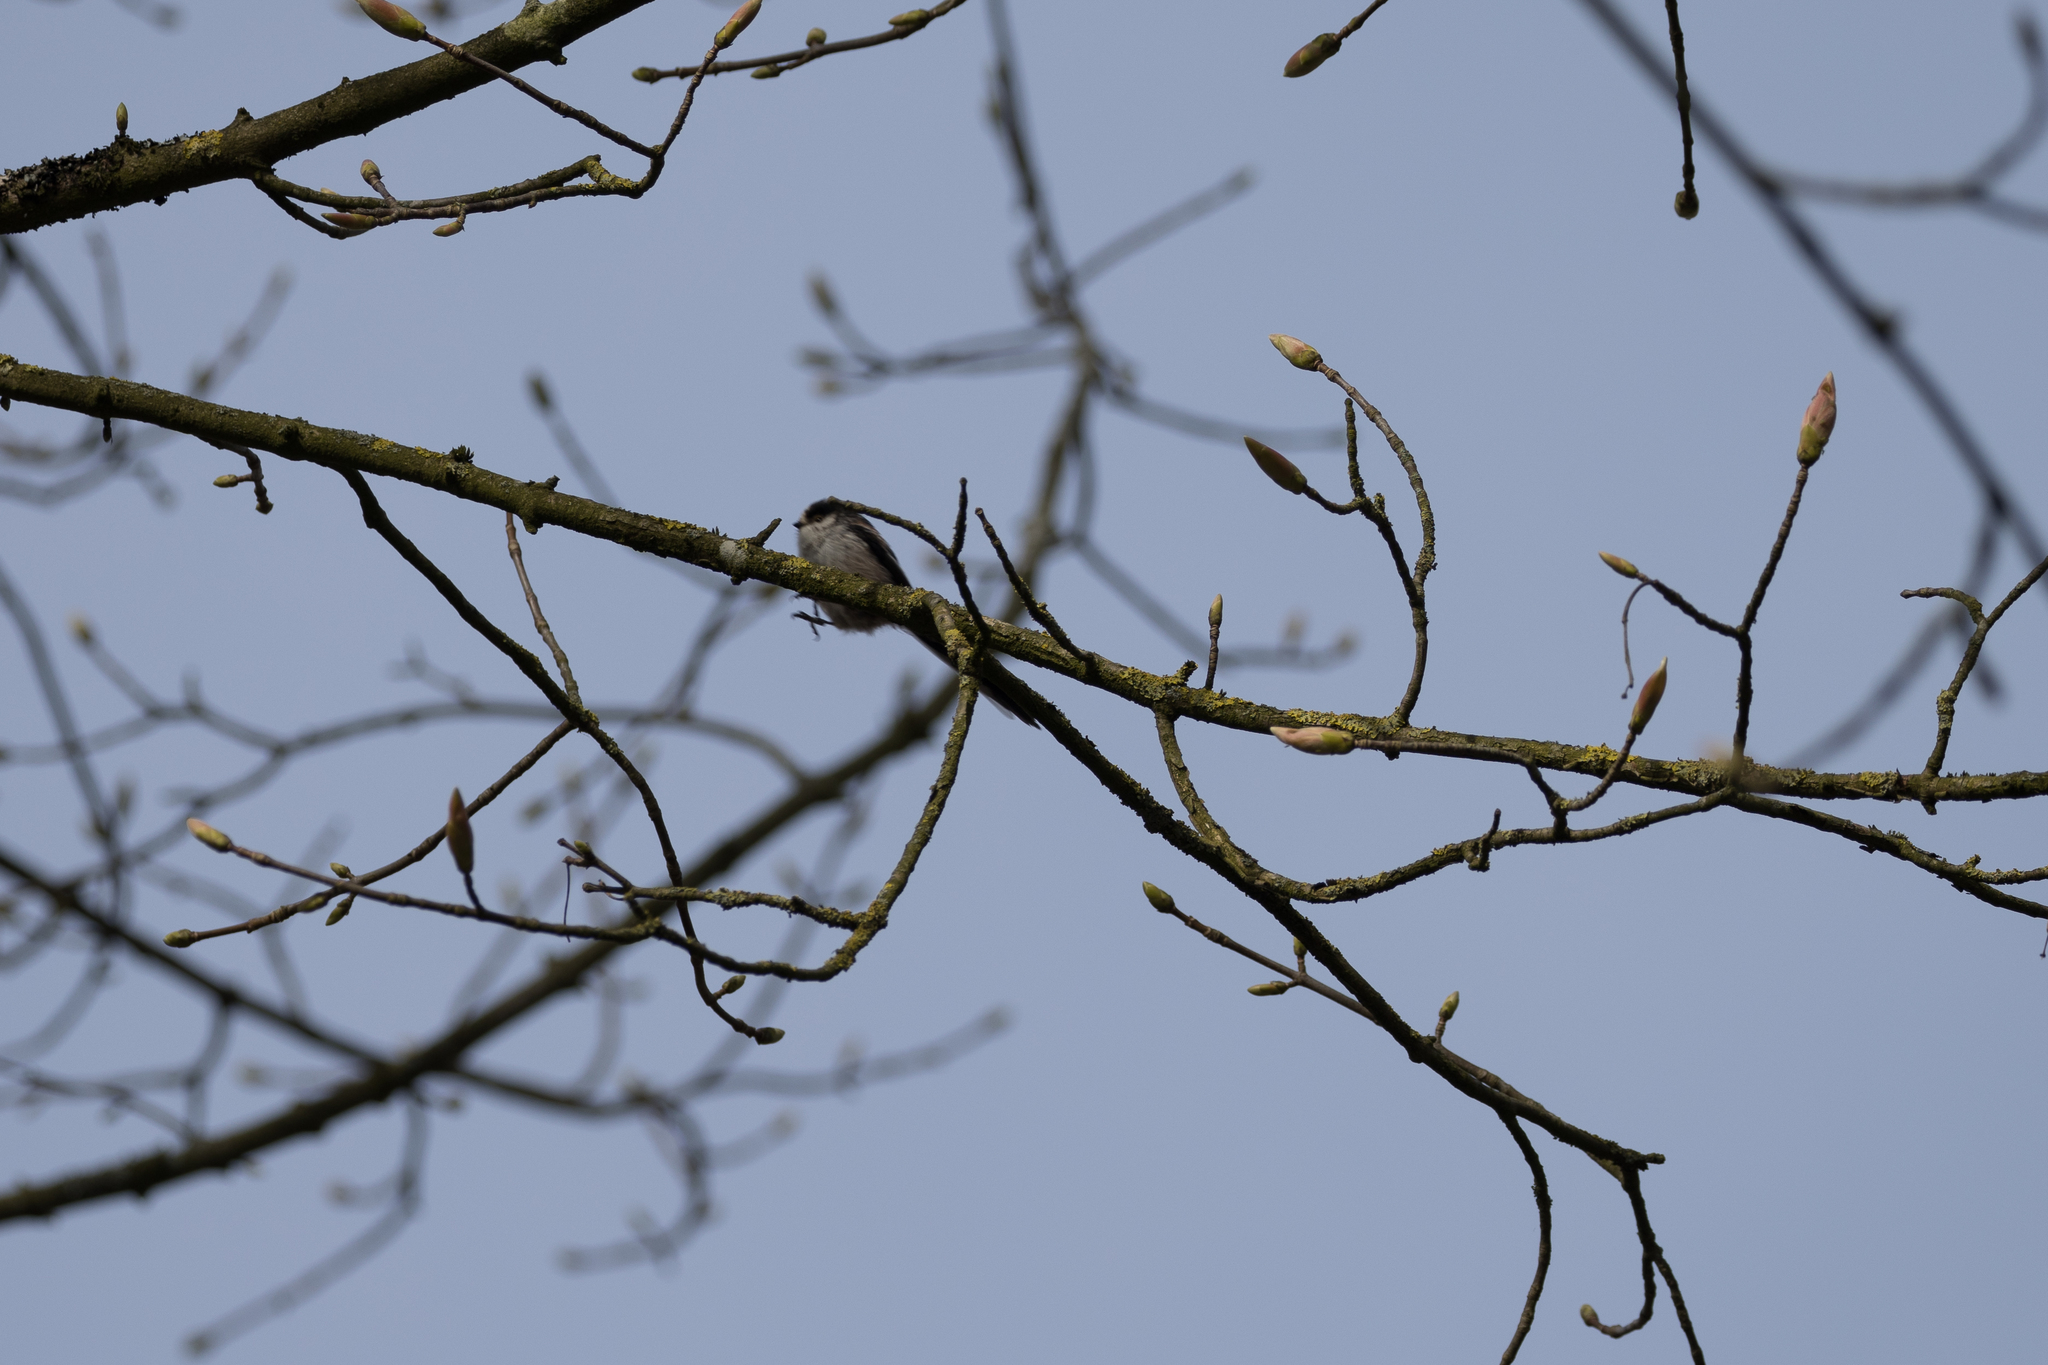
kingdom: Animalia
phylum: Chordata
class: Aves
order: Passeriformes
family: Aegithalidae
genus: Aegithalos
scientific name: Aegithalos caudatus
